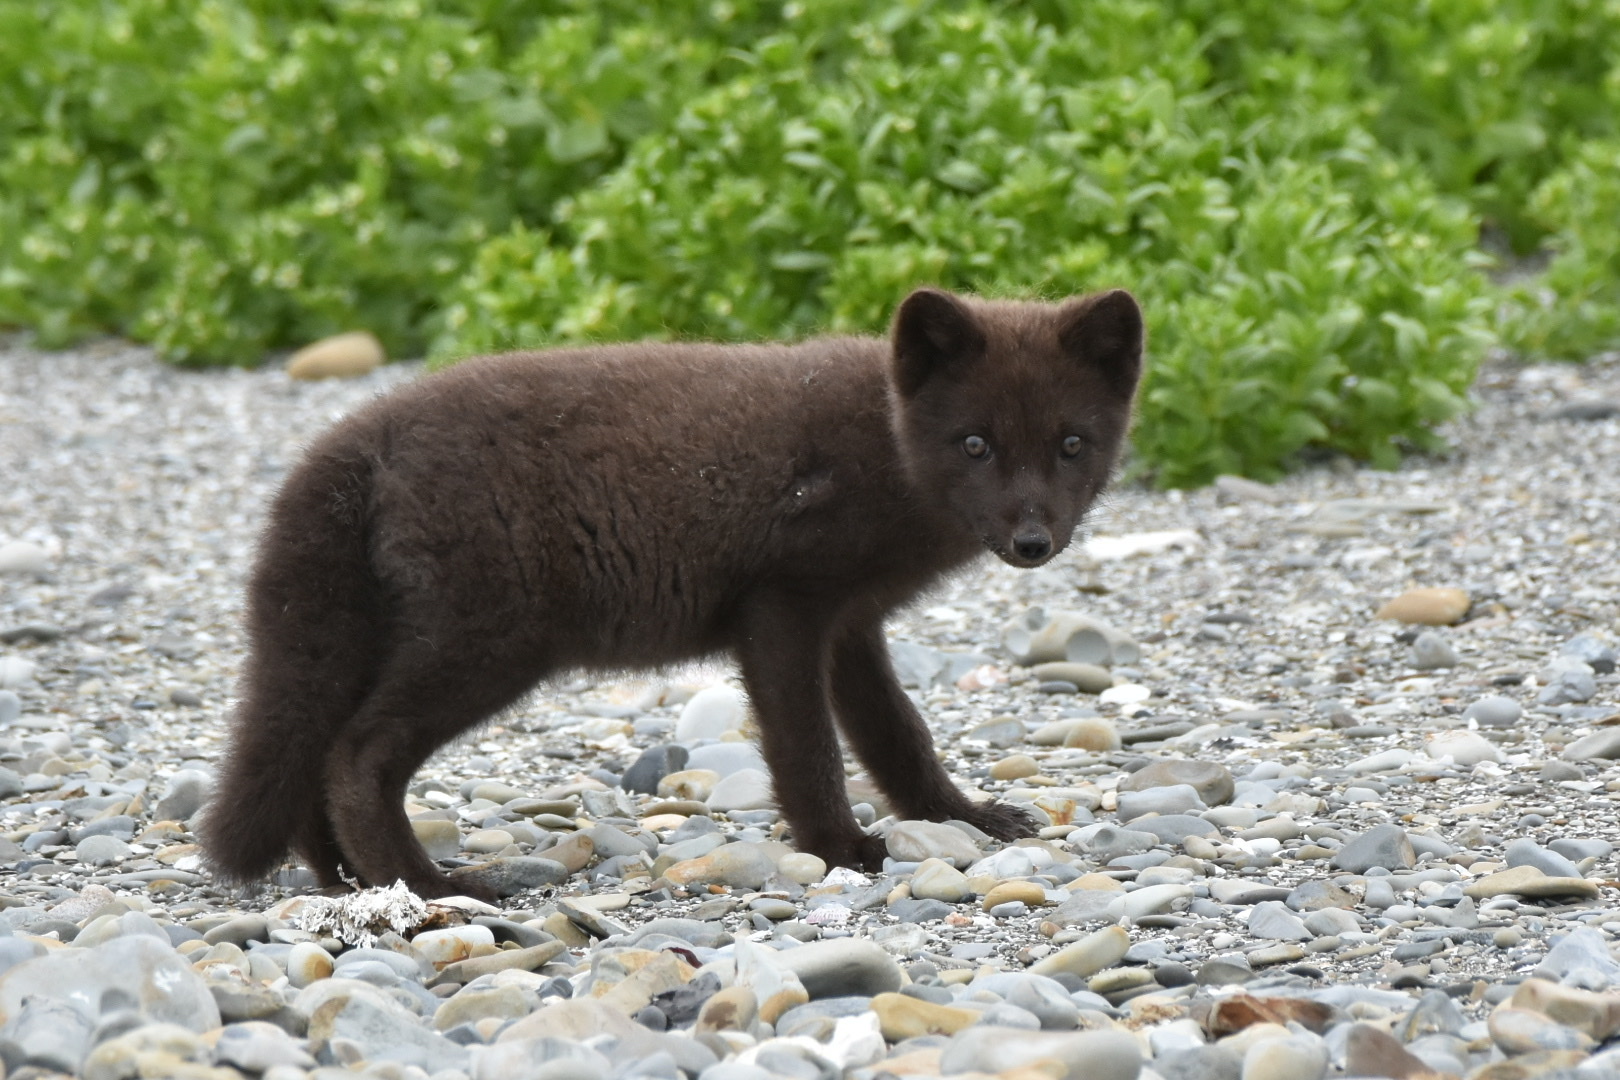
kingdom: Animalia
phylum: Chordata
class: Mammalia
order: Carnivora
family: Canidae
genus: Vulpes
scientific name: Vulpes lagopus
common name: Arctic fox
